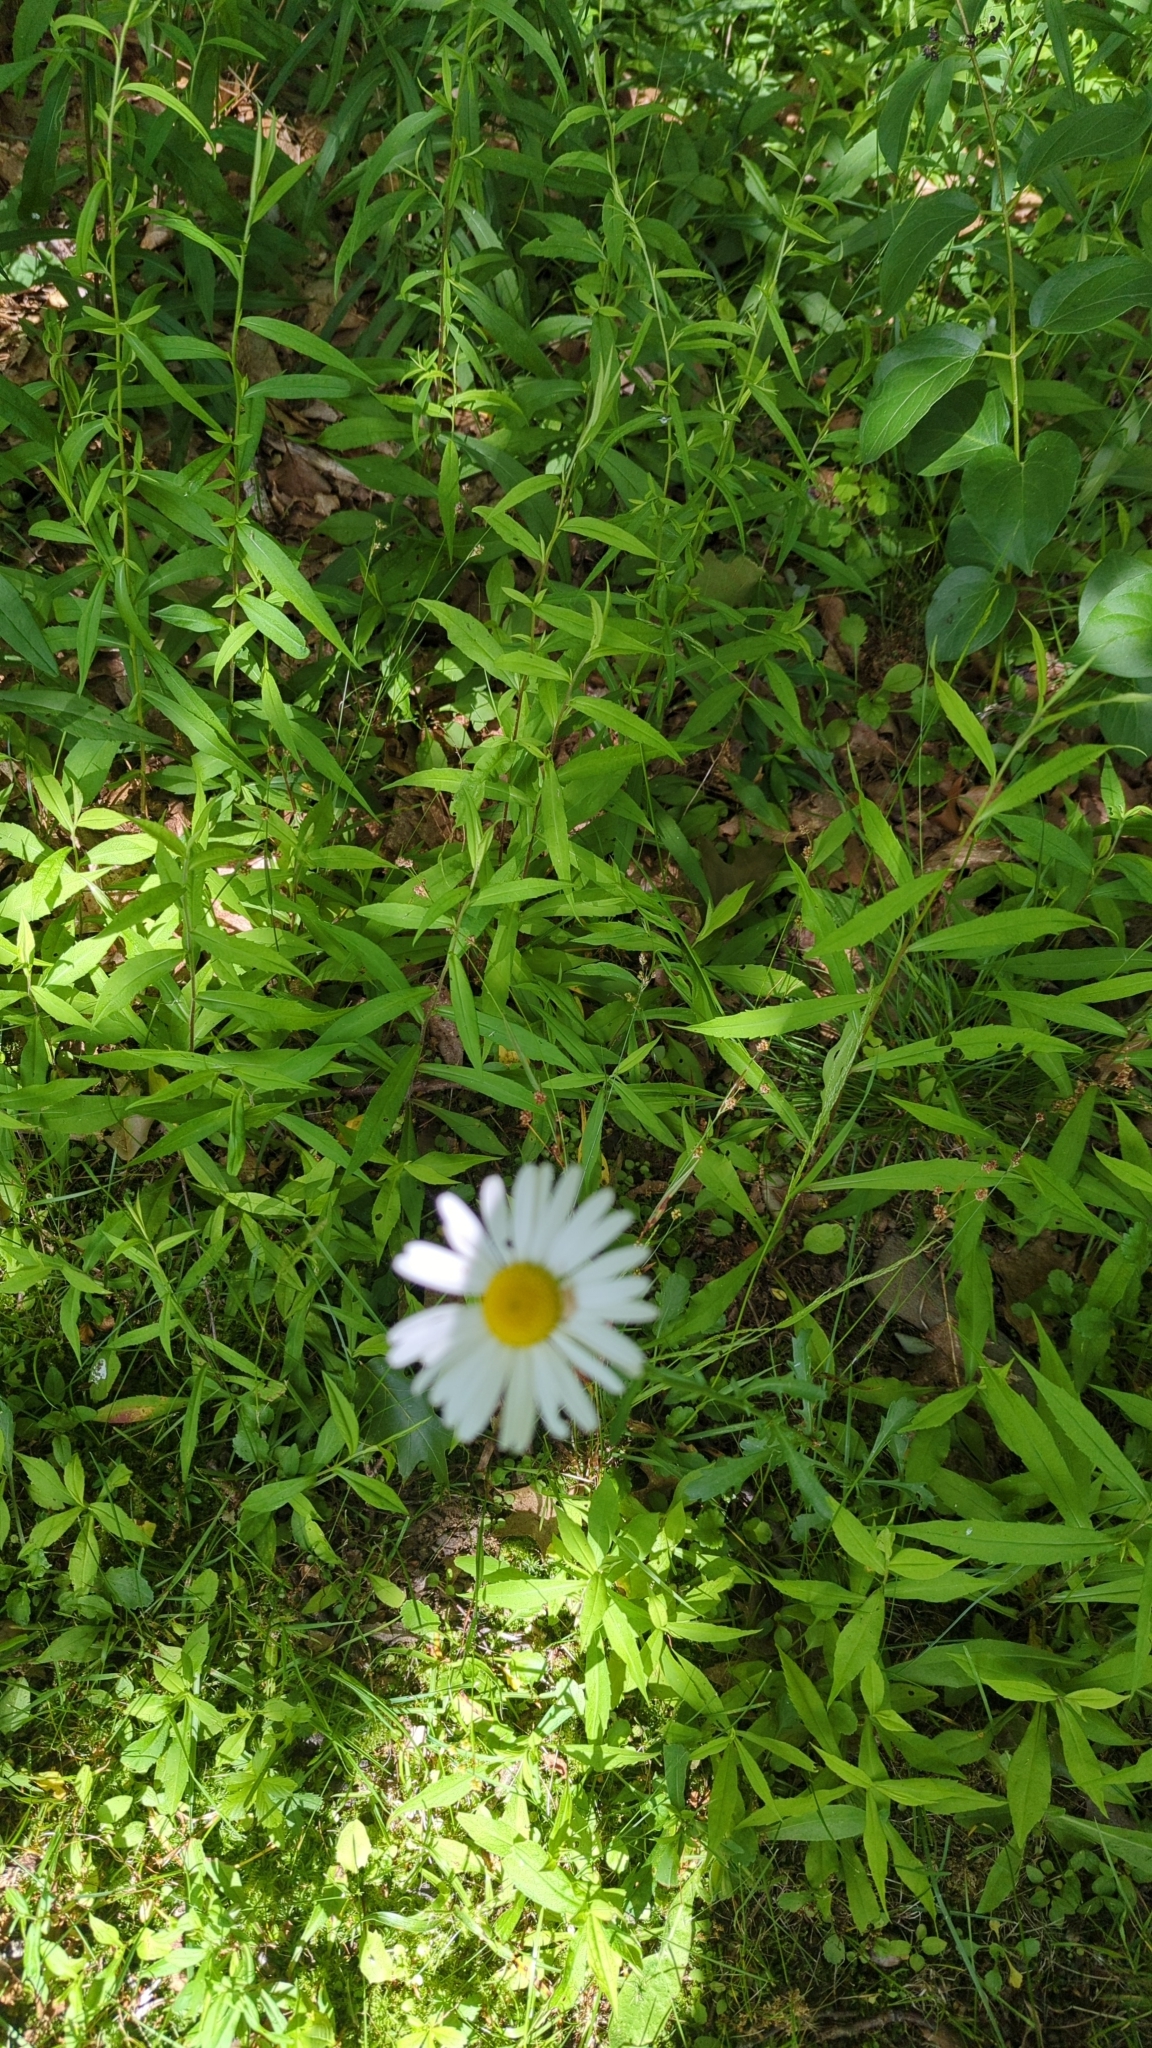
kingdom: Plantae
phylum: Tracheophyta
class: Magnoliopsida
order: Asterales
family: Asteraceae
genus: Leucanthemum
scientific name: Leucanthemum vulgare
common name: Oxeye daisy
